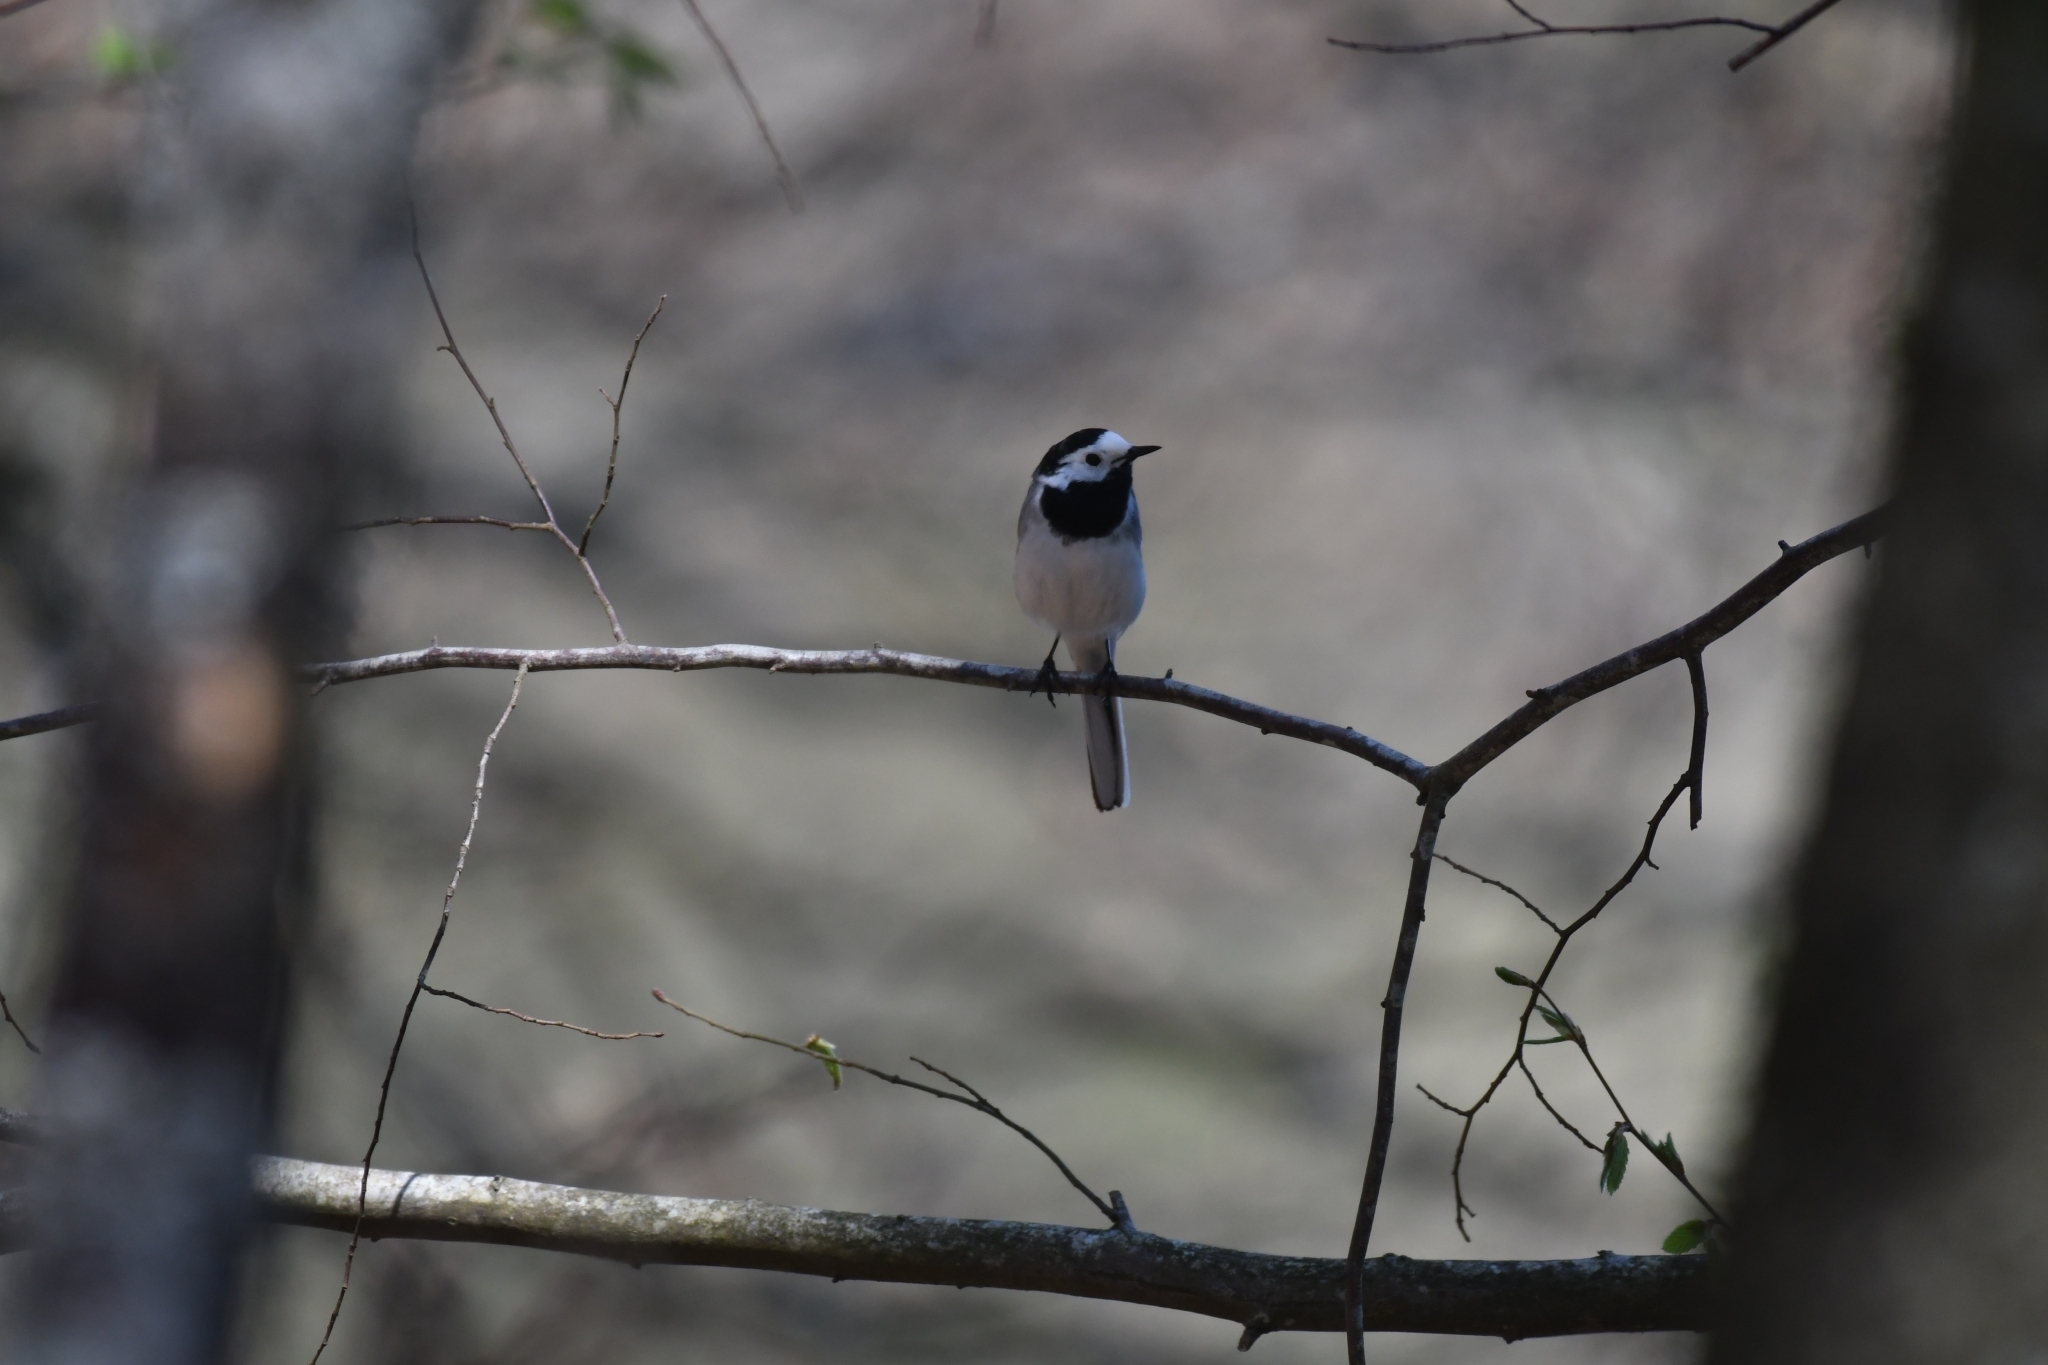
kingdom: Animalia
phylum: Chordata
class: Aves
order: Passeriformes
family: Motacillidae
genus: Motacilla
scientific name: Motacilla alba
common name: White wagtail
